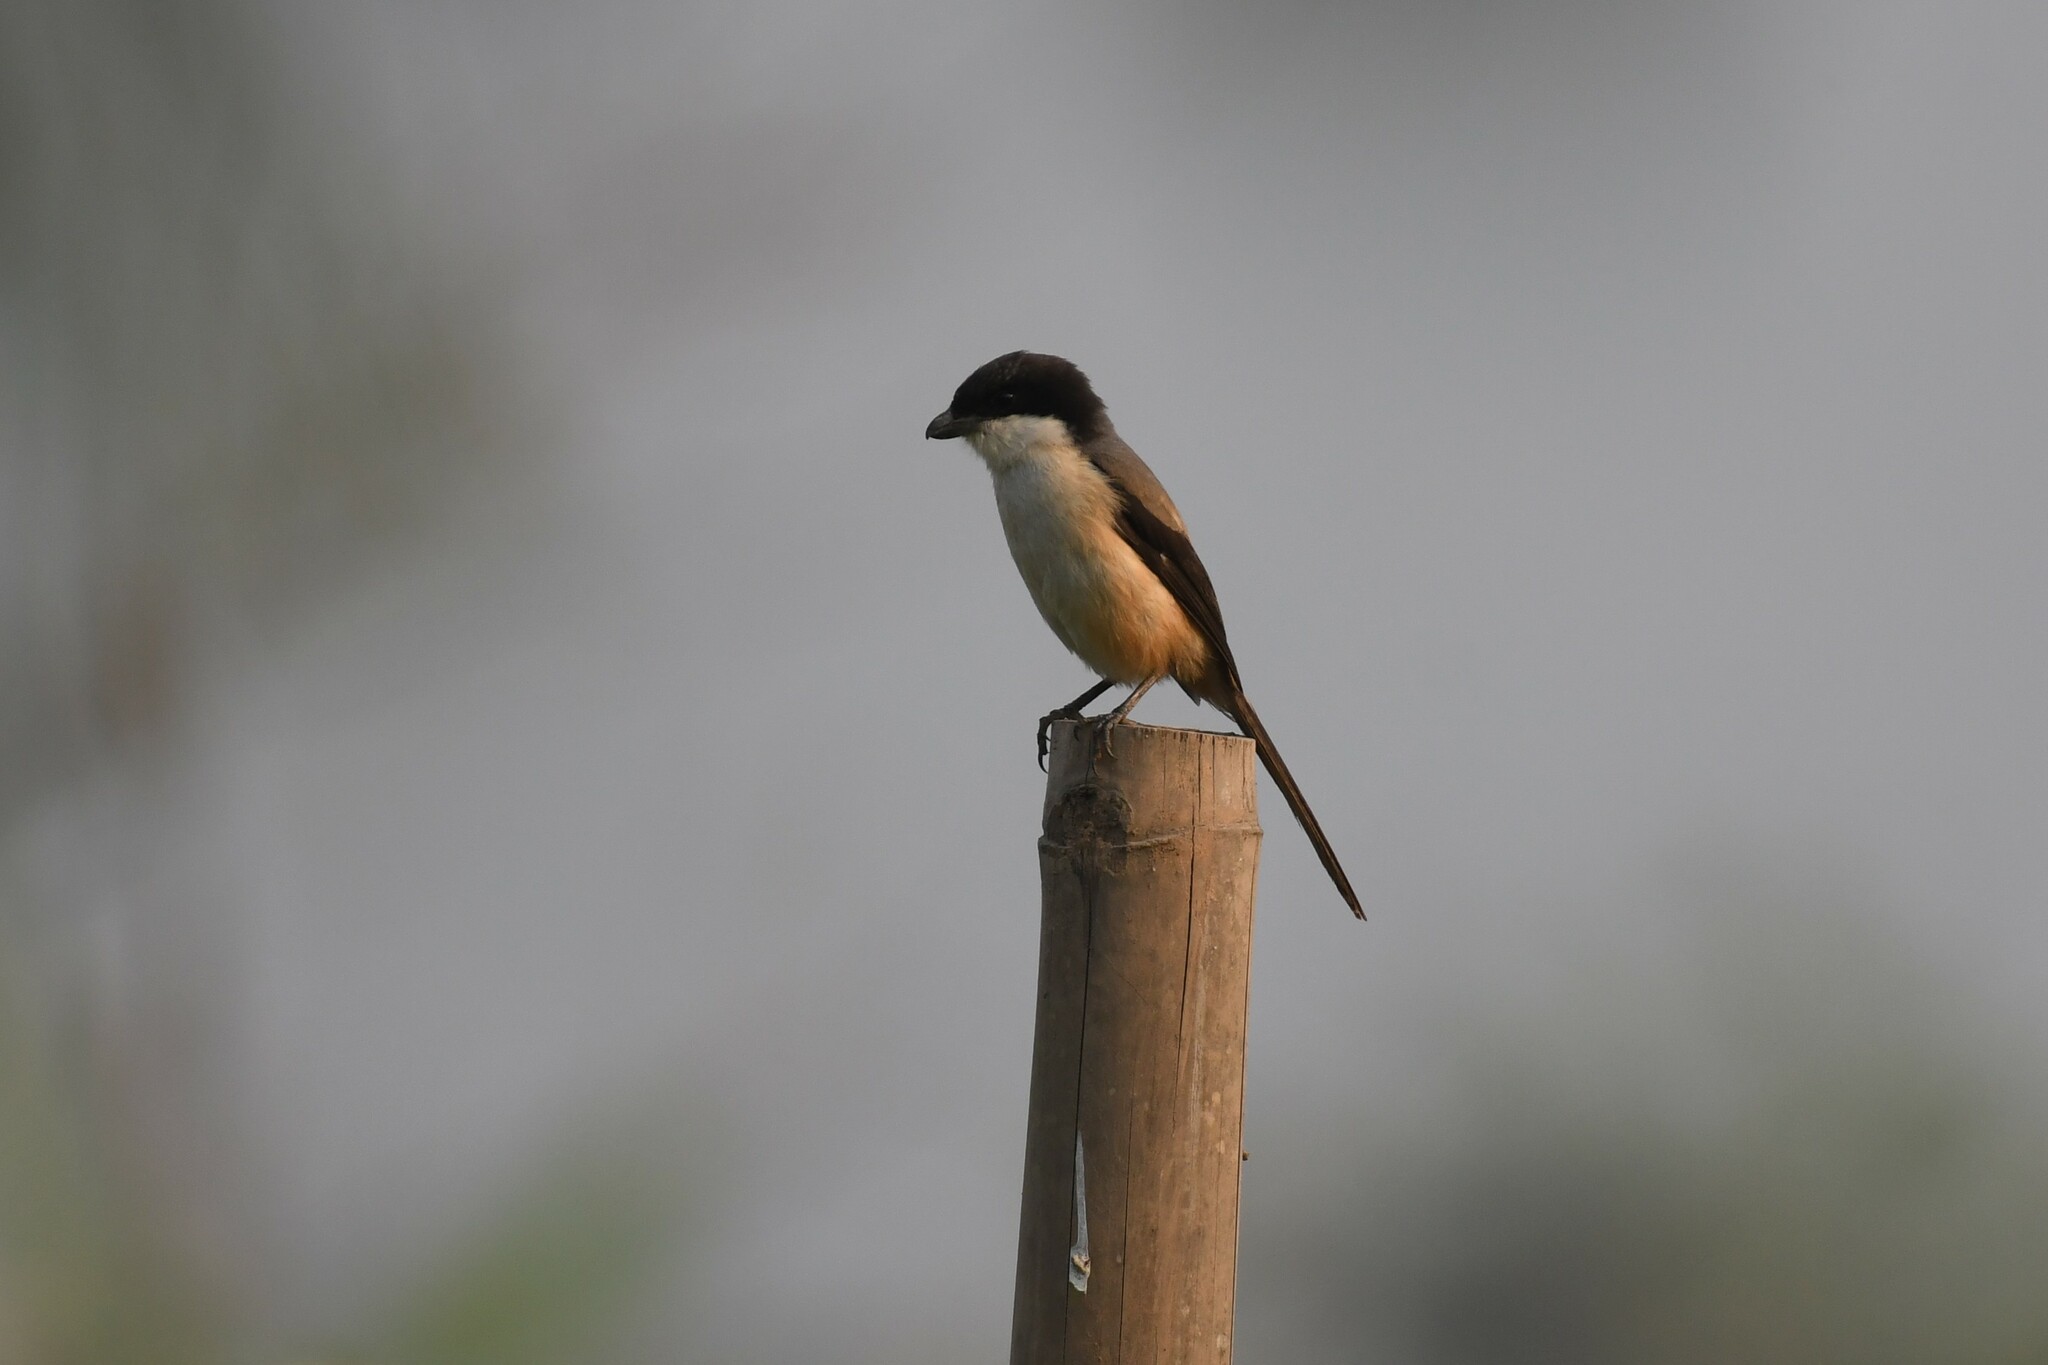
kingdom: Animalia
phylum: Chordata
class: Aves
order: Passeriformes
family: Laniidae
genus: Lanius
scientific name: Lanius schach
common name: Long-tailed shrike
